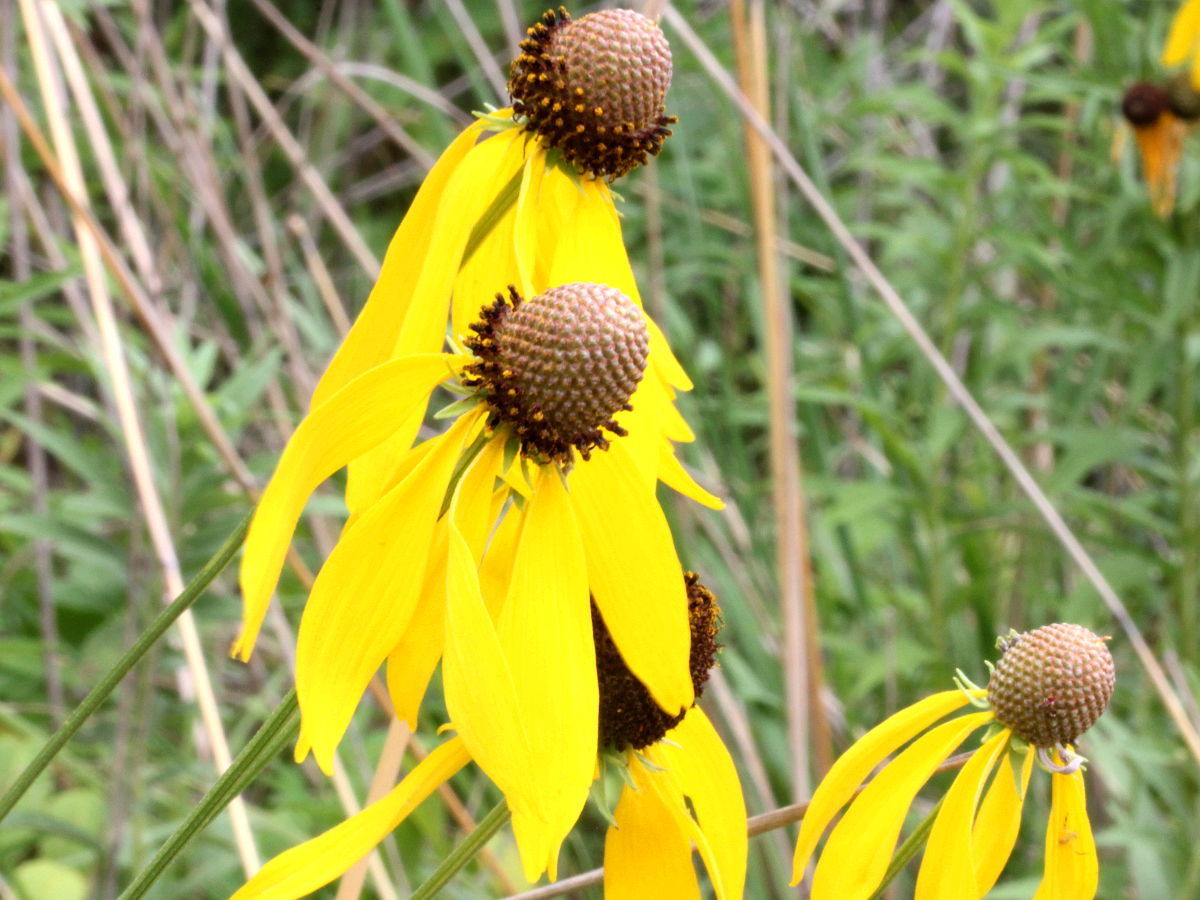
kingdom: Plantae
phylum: Tracheophyta
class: Magnoliopsida
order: Asterales
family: Asteraceae
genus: Ratibida
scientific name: Ratibida pinnata
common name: Drooping prairie-coneflower
